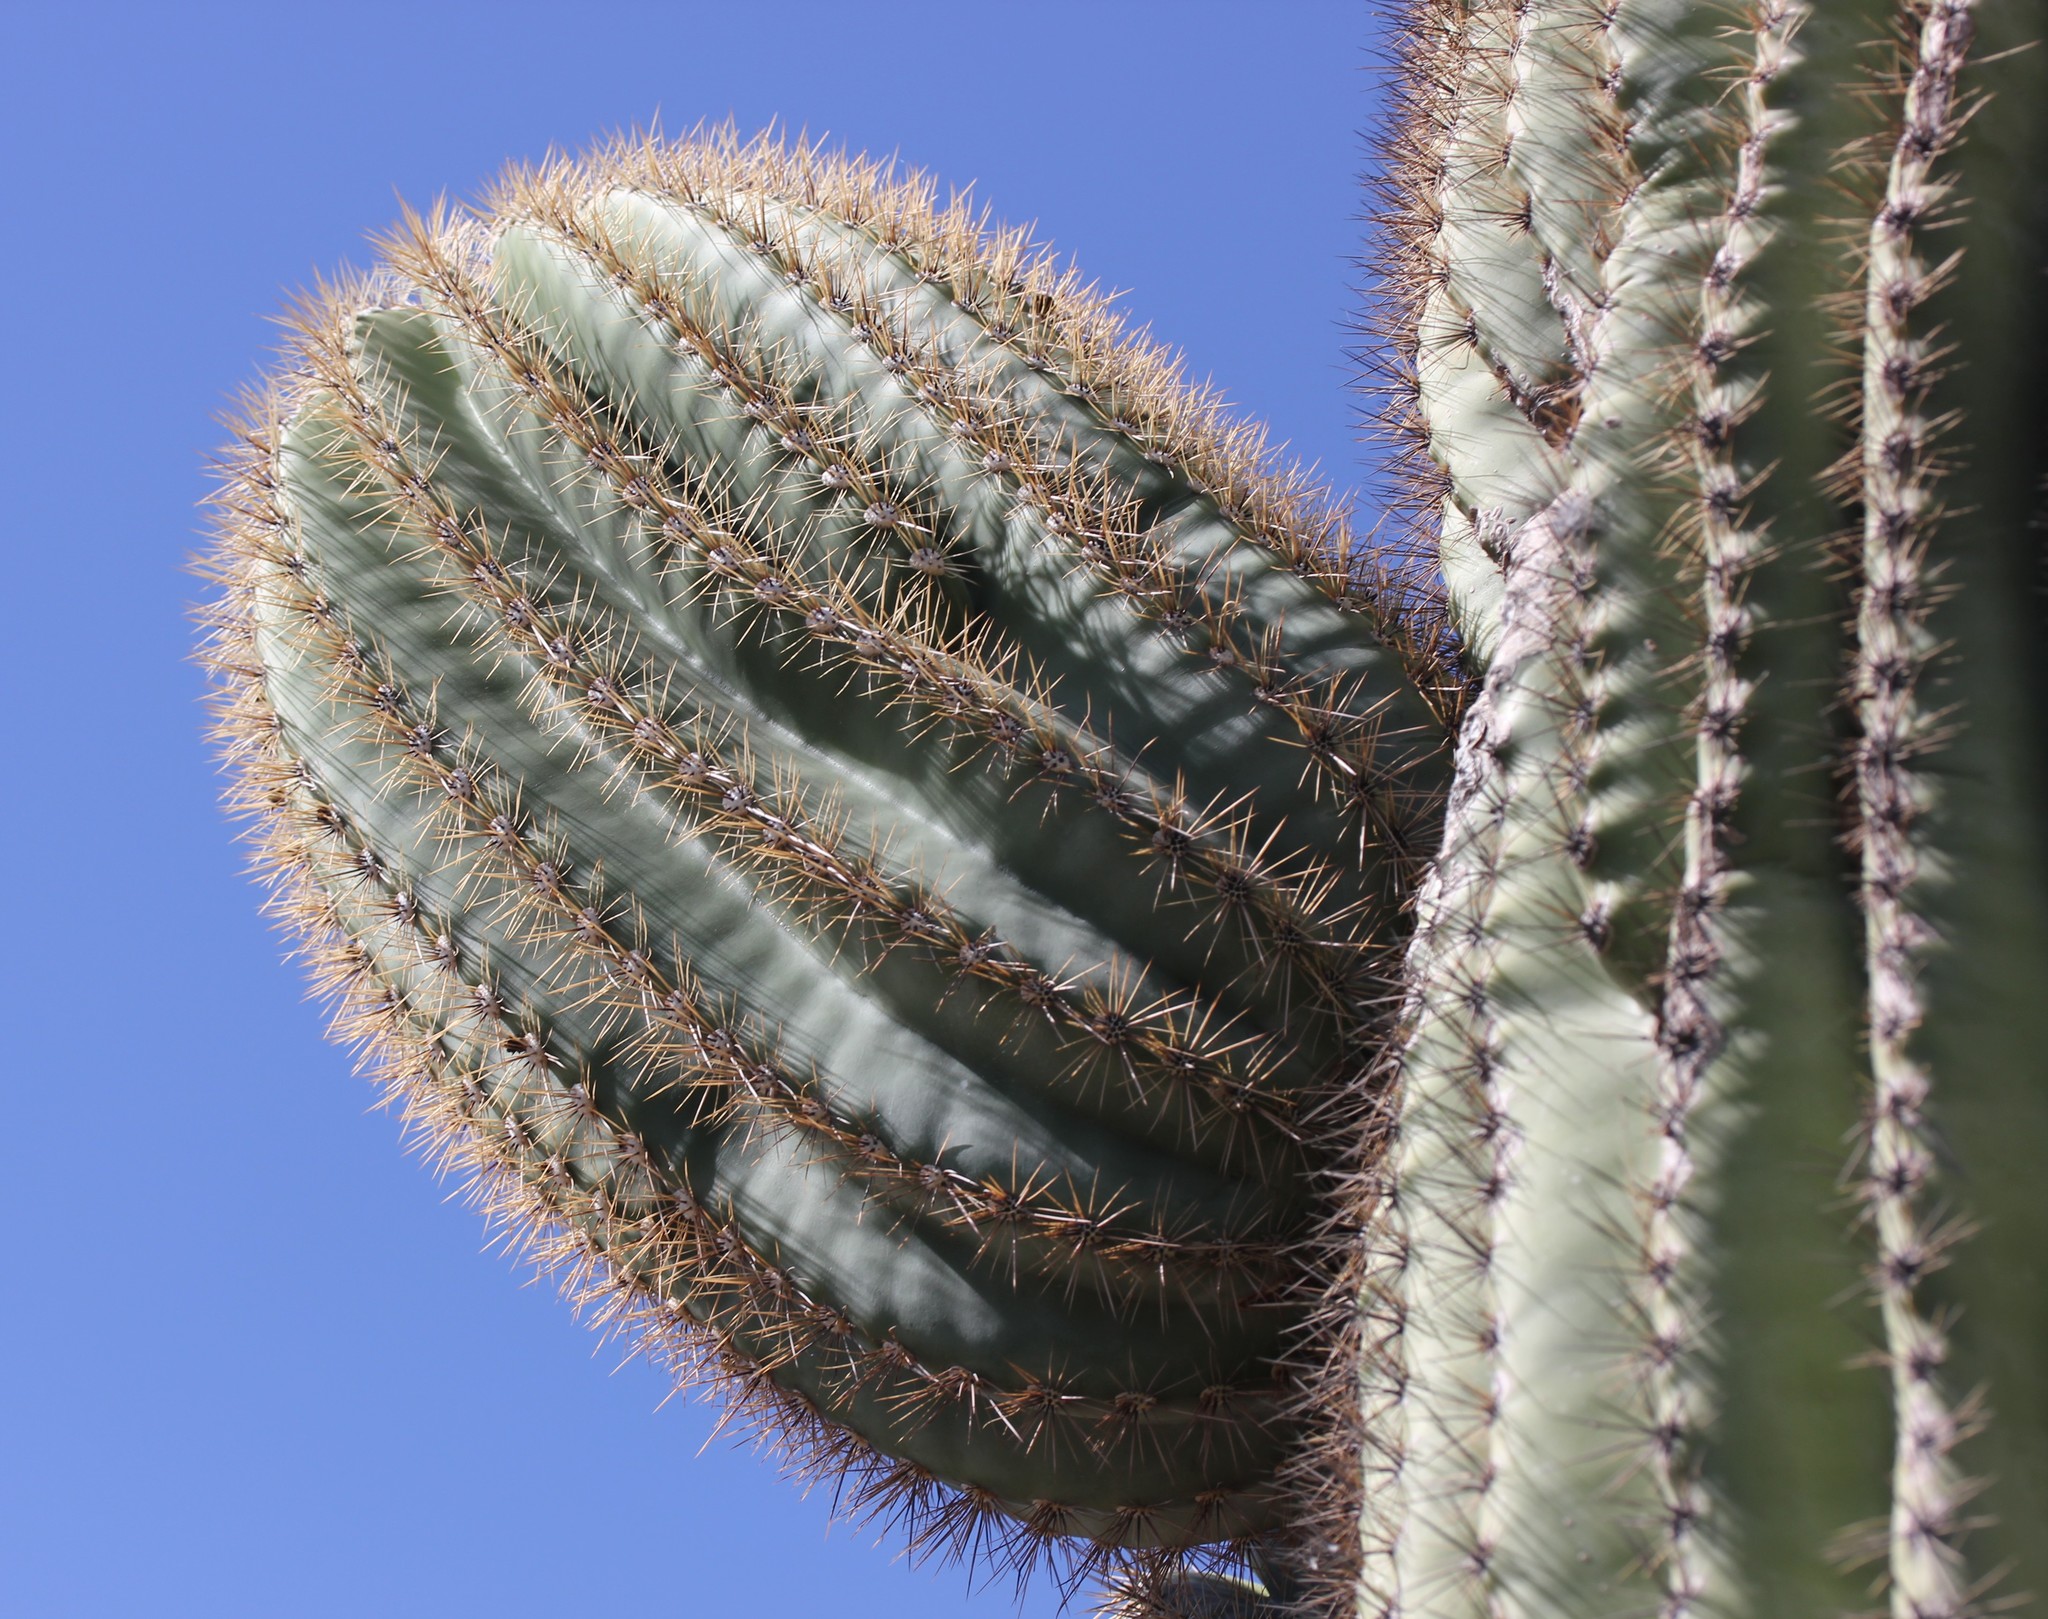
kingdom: Plantae
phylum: Tracheophyta
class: Magnoliopsida
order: Caryophyllales
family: Cactaceae
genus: Carnegiea
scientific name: Carnegiea gigantea
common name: Saguaro
